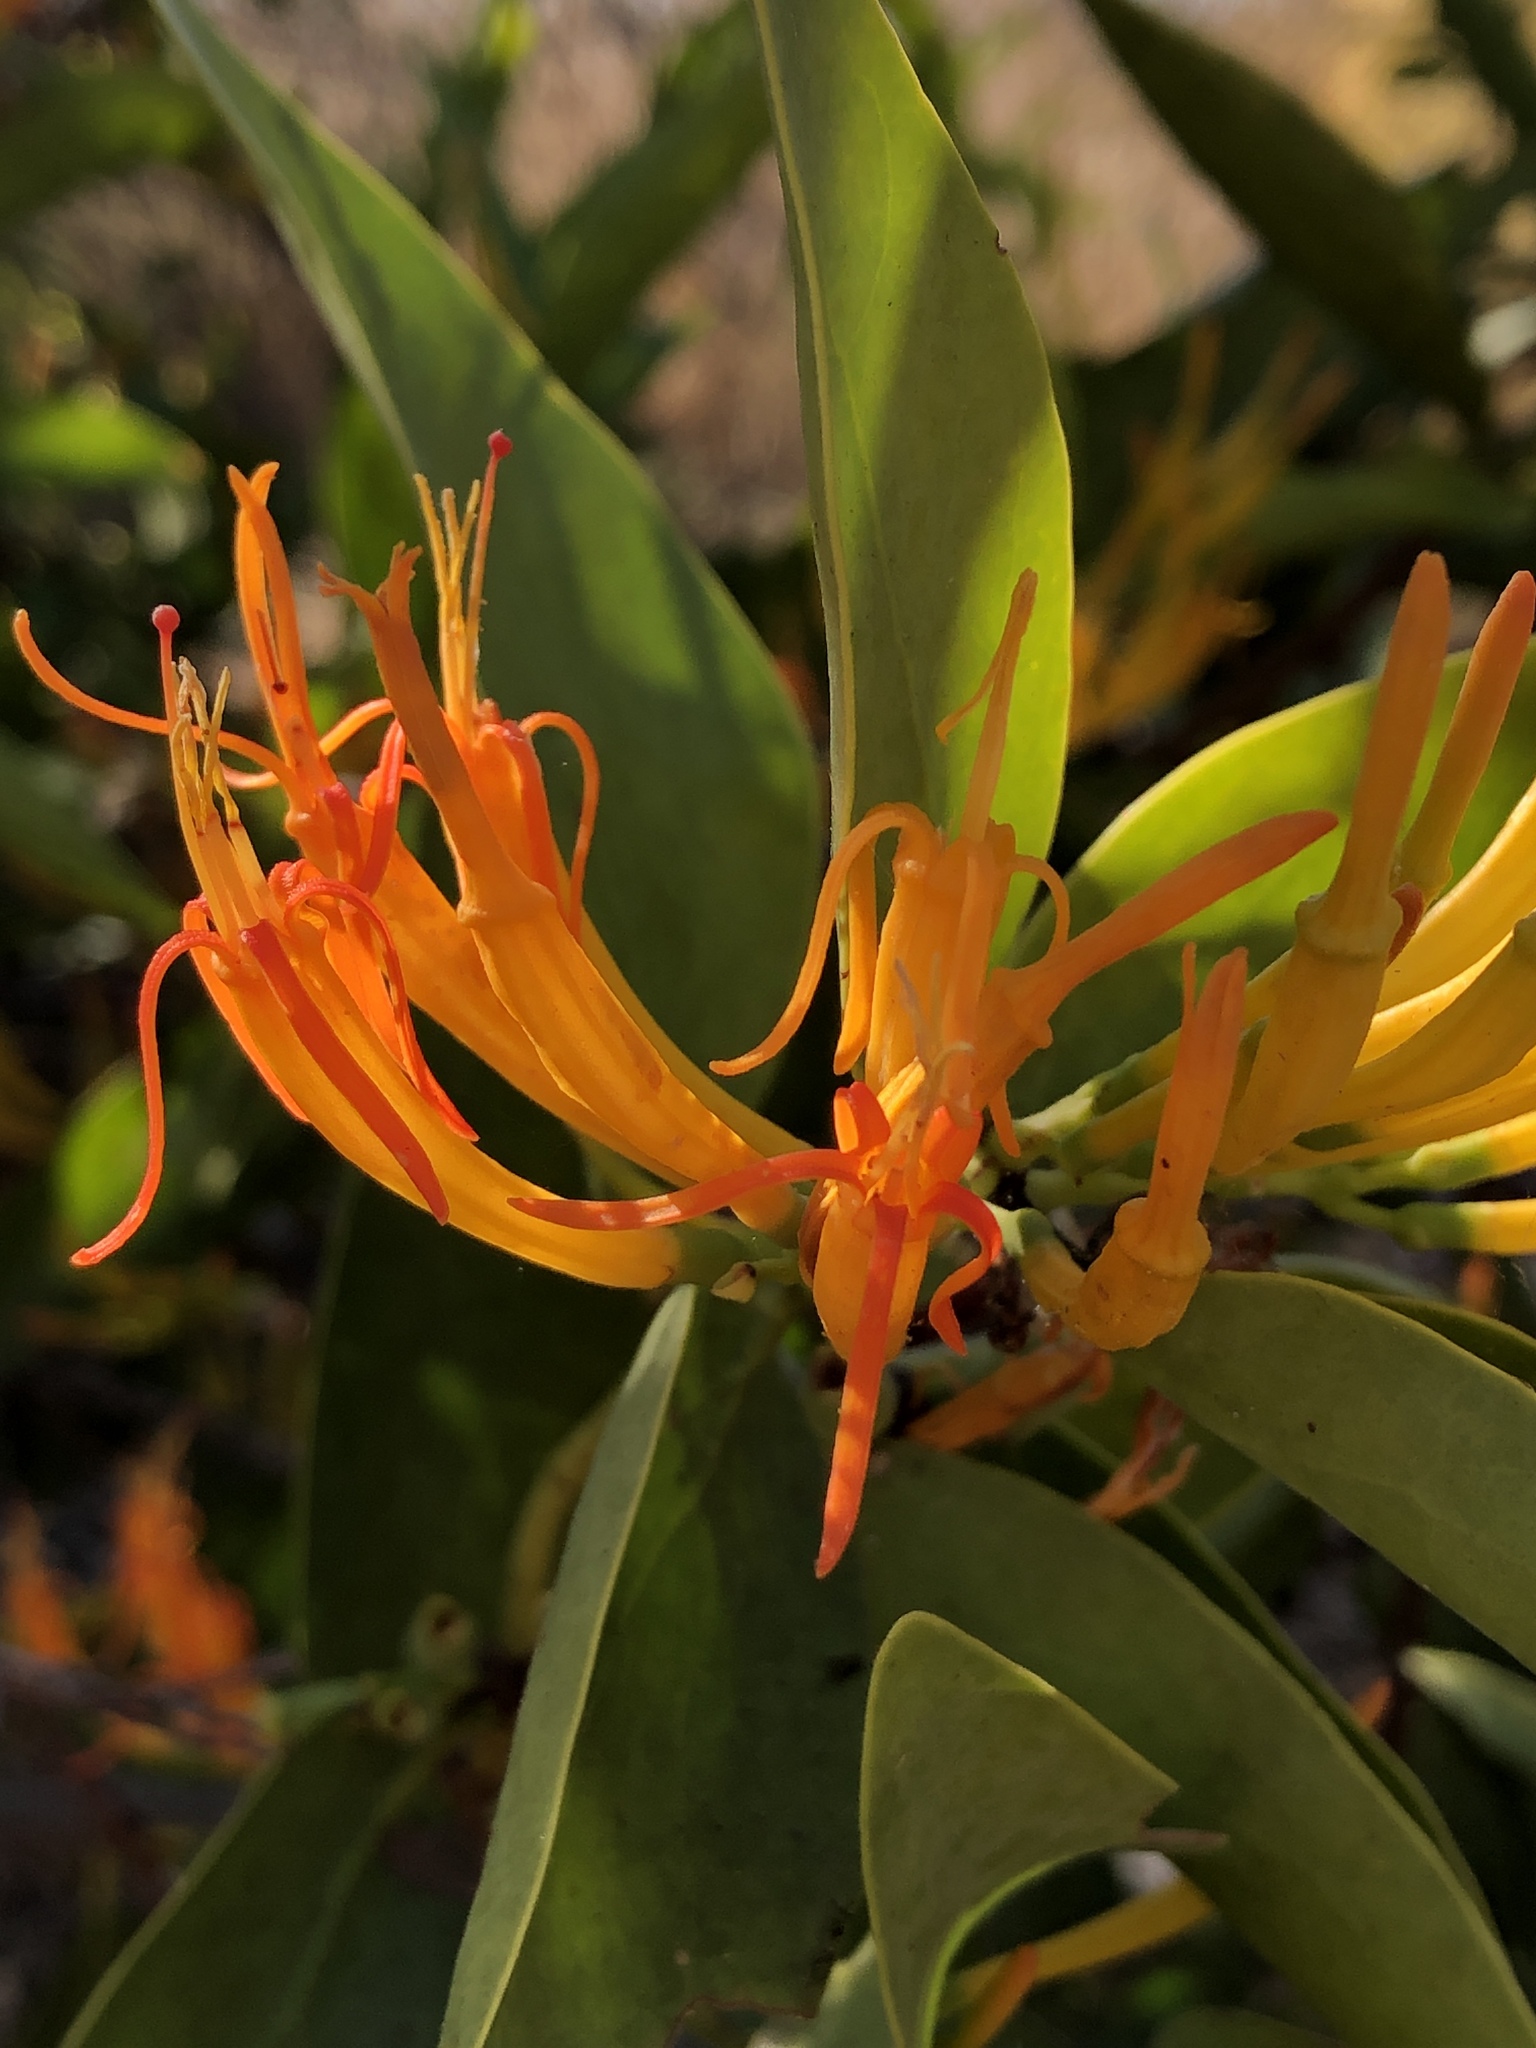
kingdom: Plantae
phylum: Tracheophyta
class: Magnoliopsida
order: Santalales
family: Loranthaceae
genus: Dendrophthoe
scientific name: Dendrophthoe glabrescens
